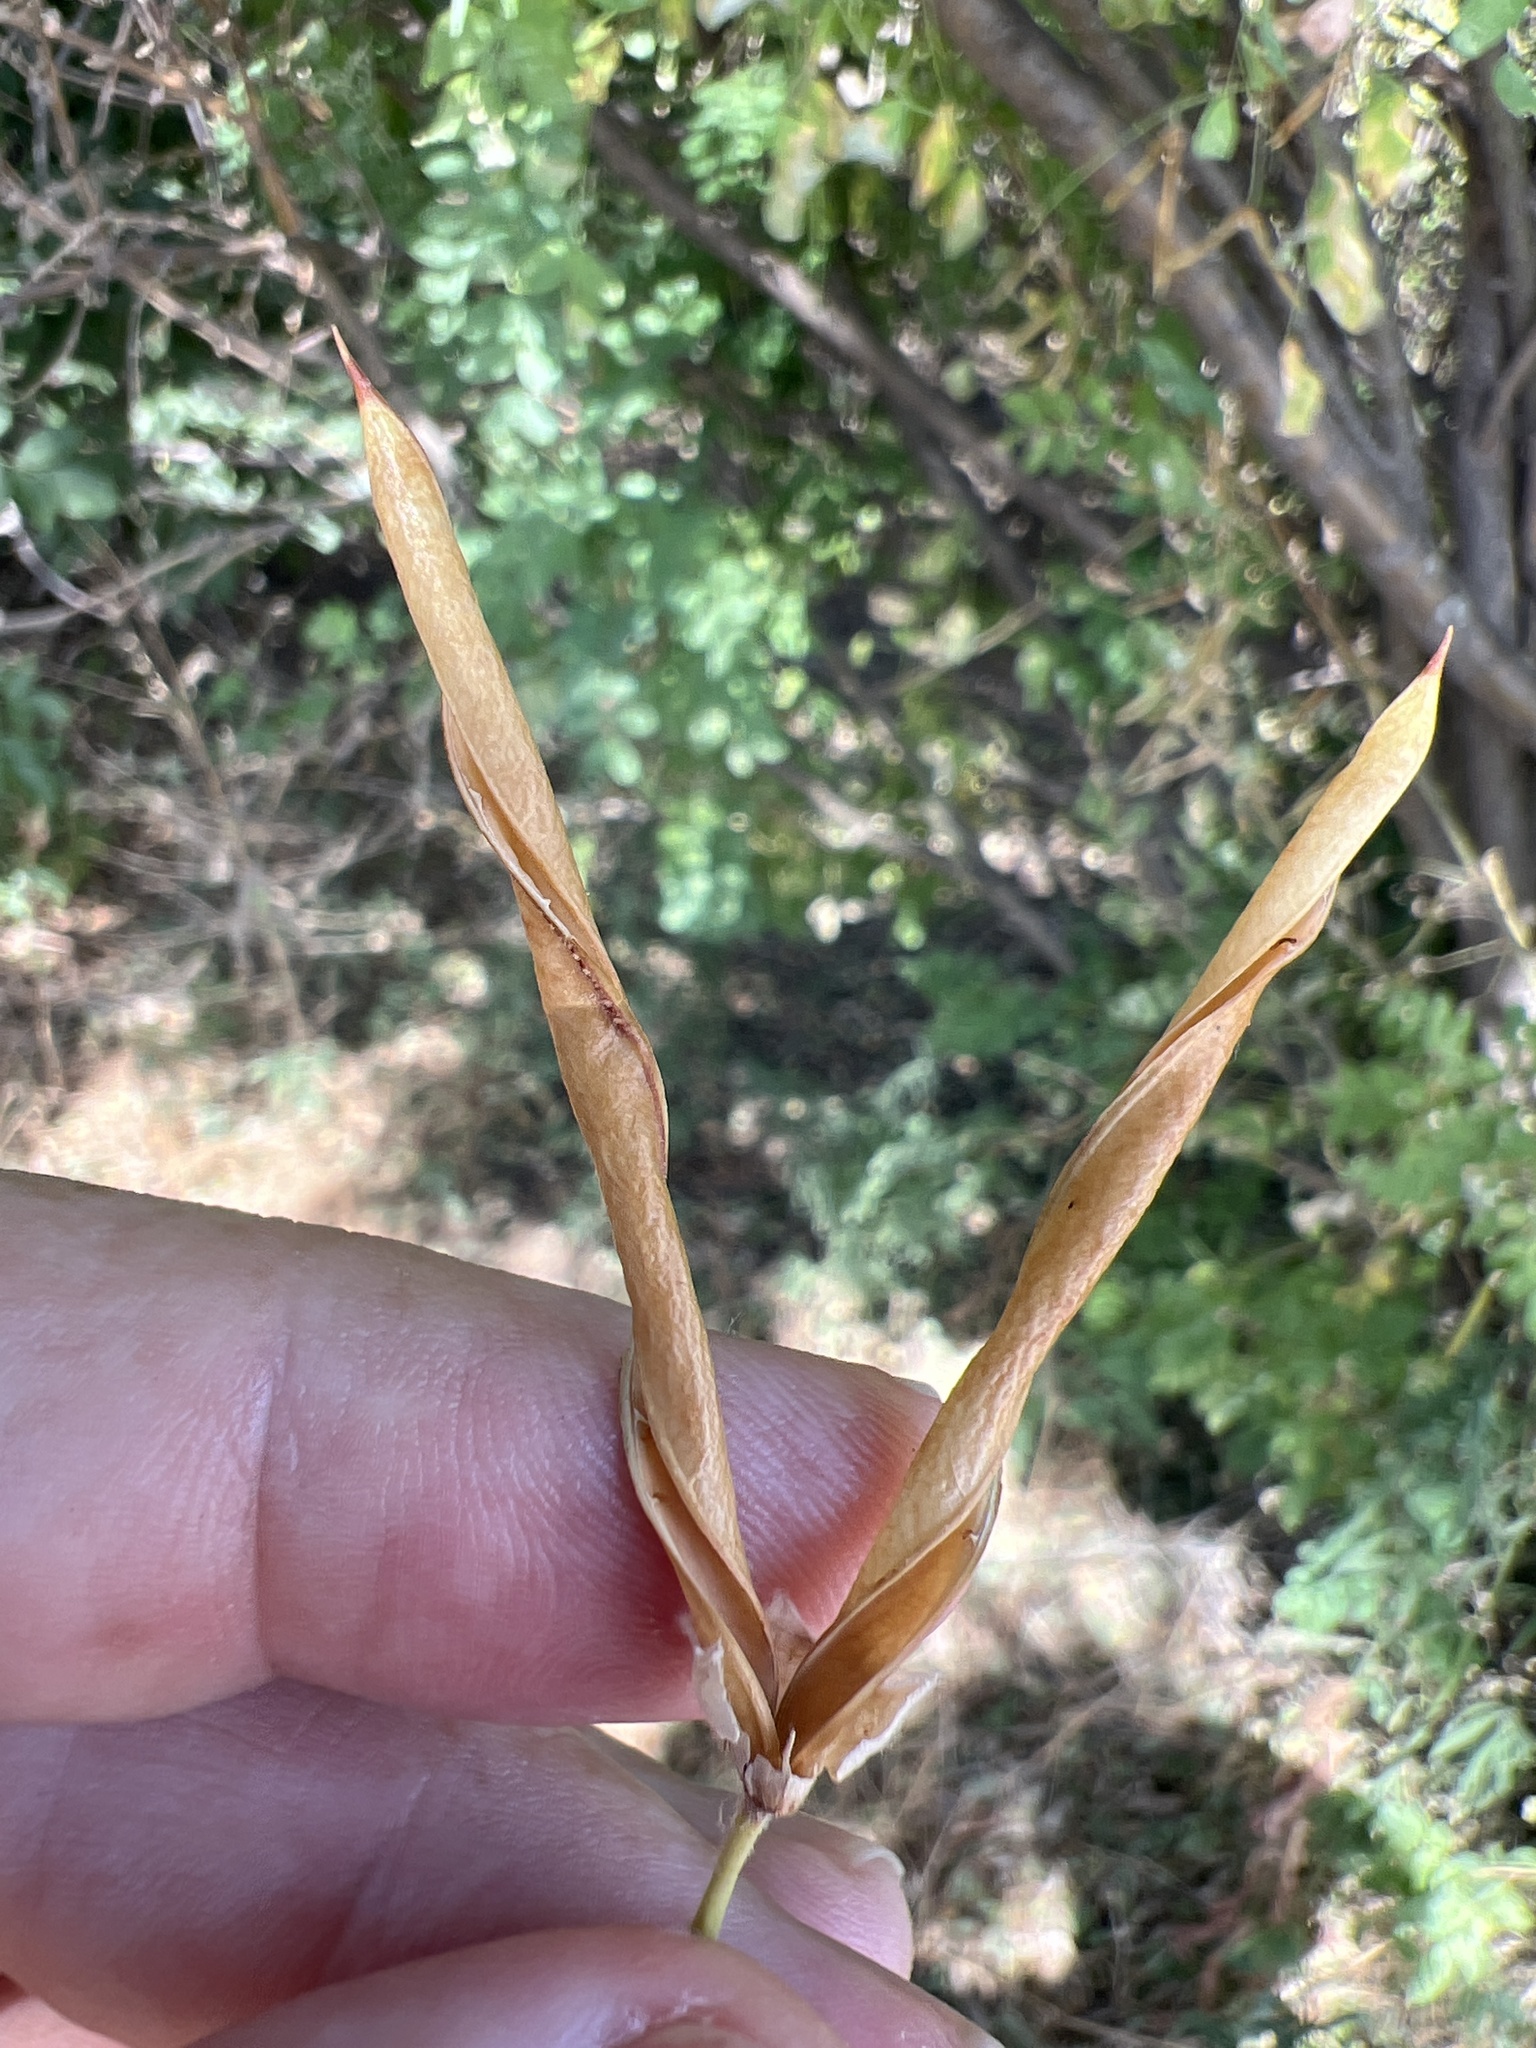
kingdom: Plantae
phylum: Tracheophyta
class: Magnoliopsida
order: Fabales
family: Fabaceae
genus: Caragana
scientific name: Caragana arborescens
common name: Siberian peashrub
